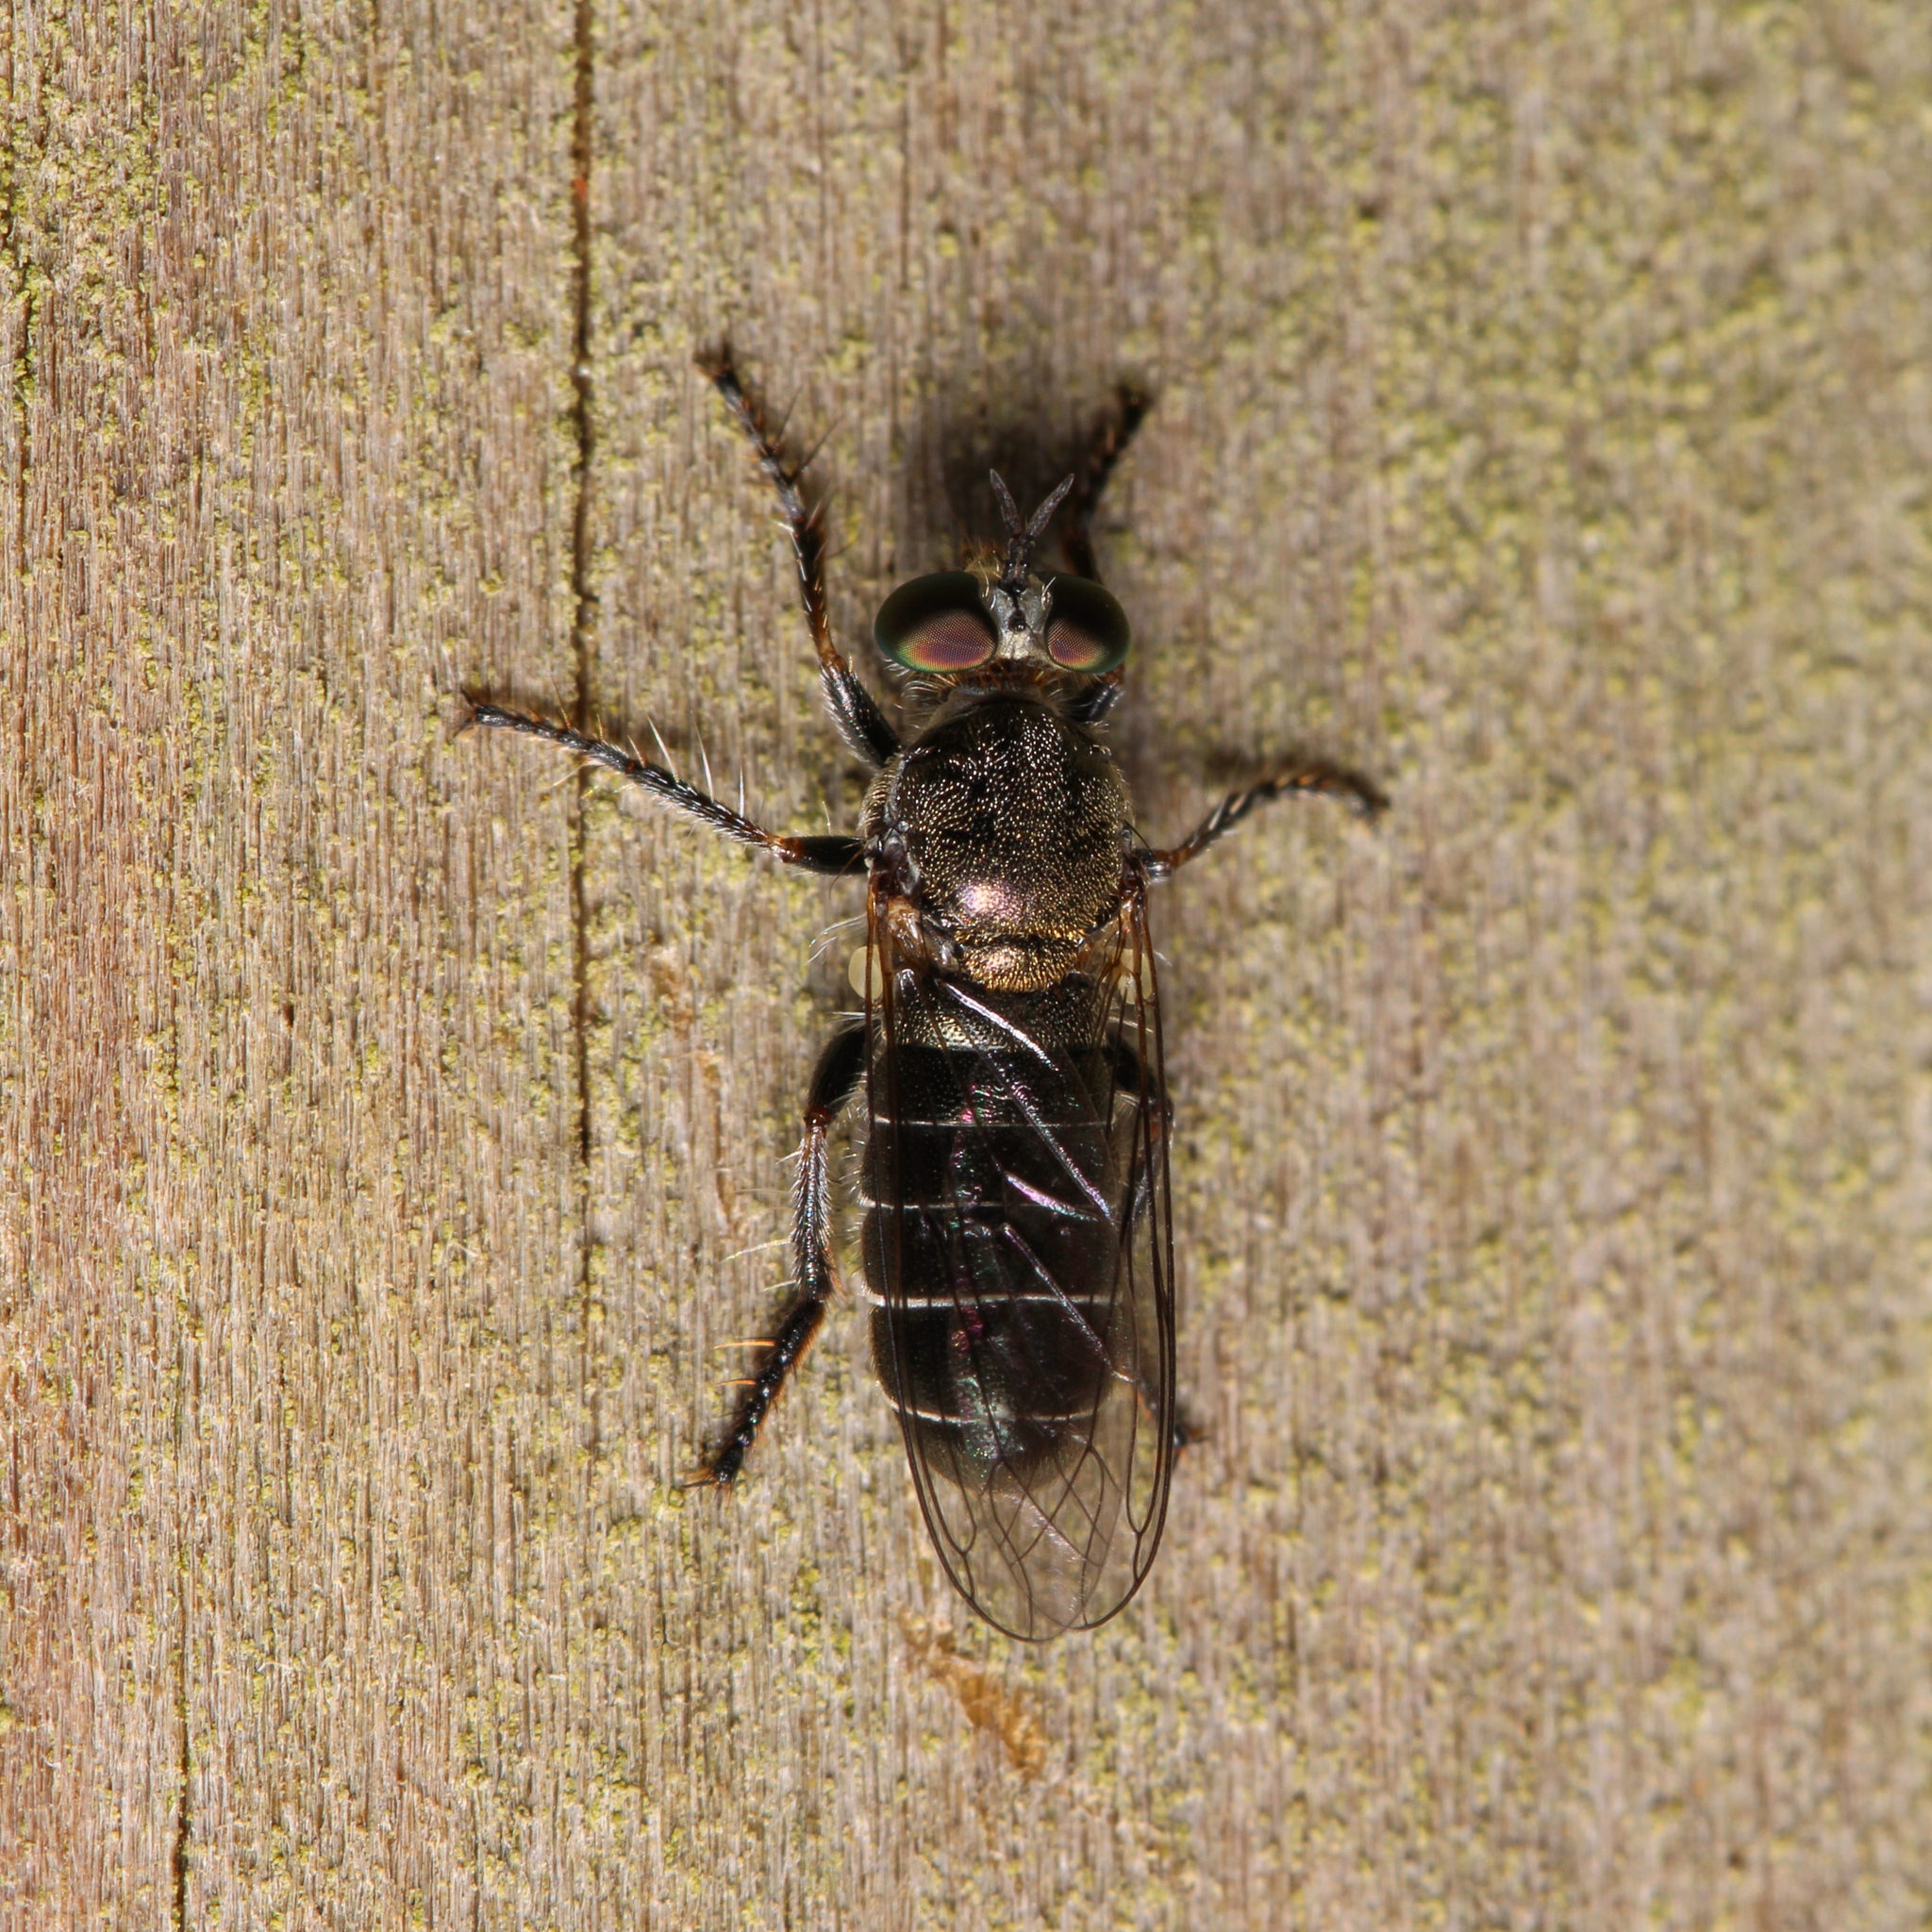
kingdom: Animalia
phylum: Arthropoda
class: Insecta
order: Diptera
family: Asilidae
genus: Atomosia
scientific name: Atomosia puella
